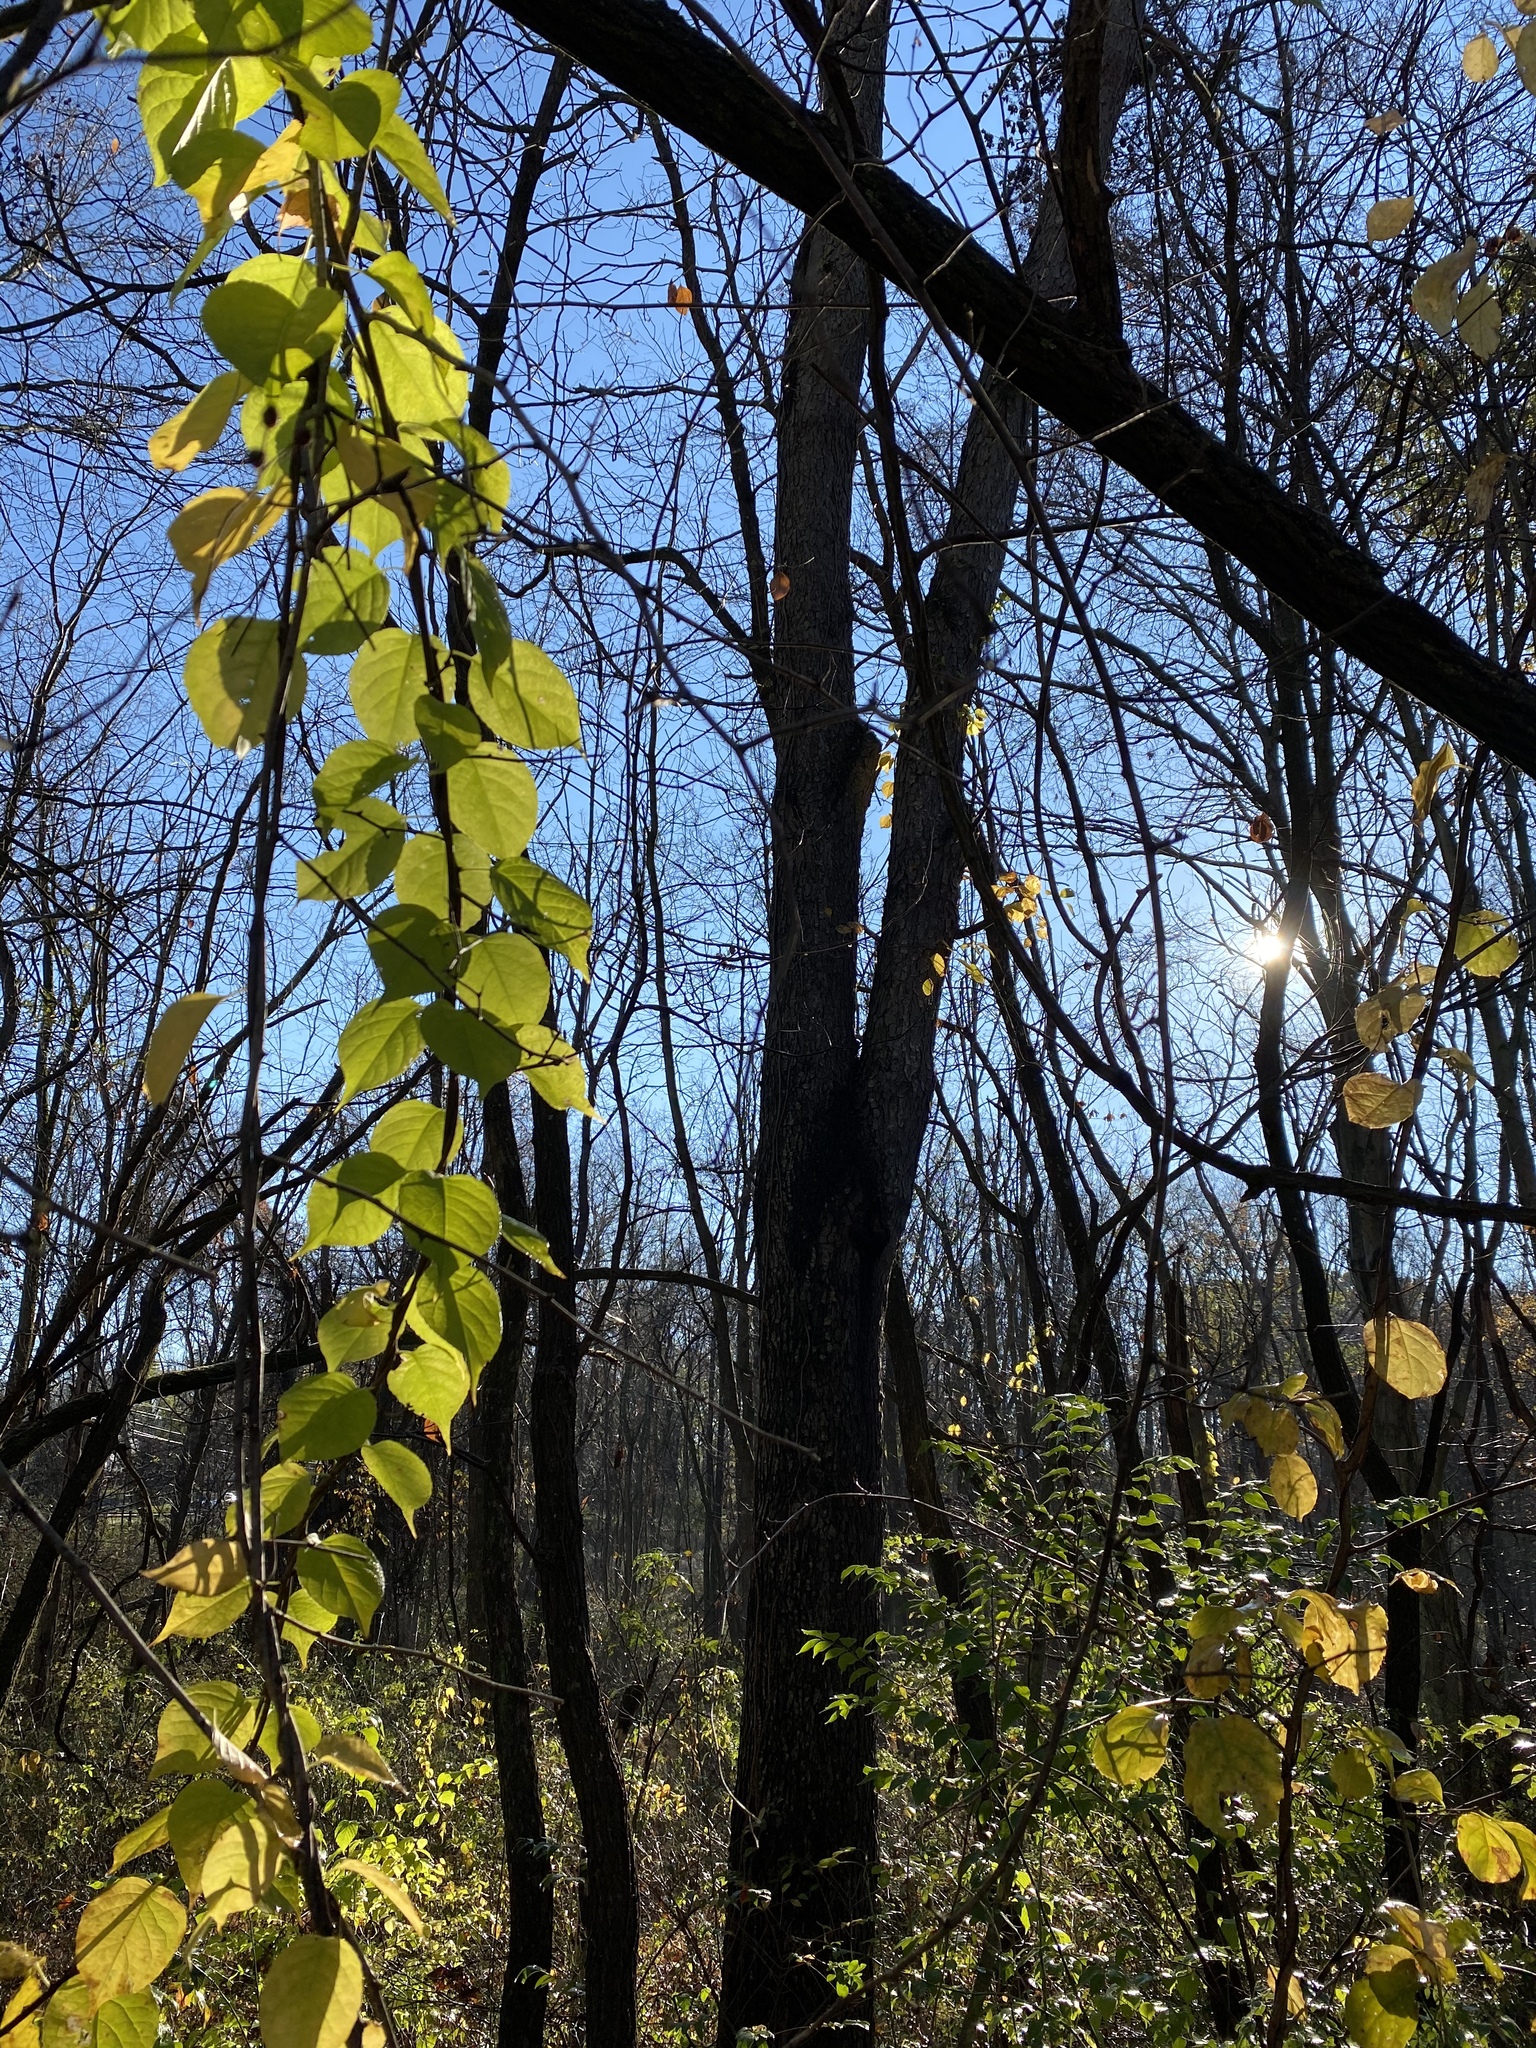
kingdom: Plantae
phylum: Tracheophyta
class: Magnoliopsida
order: Celastrales
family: Celastraceae
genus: Celastrus
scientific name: Celastrus orbiculatus
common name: Oriental bittersweet
